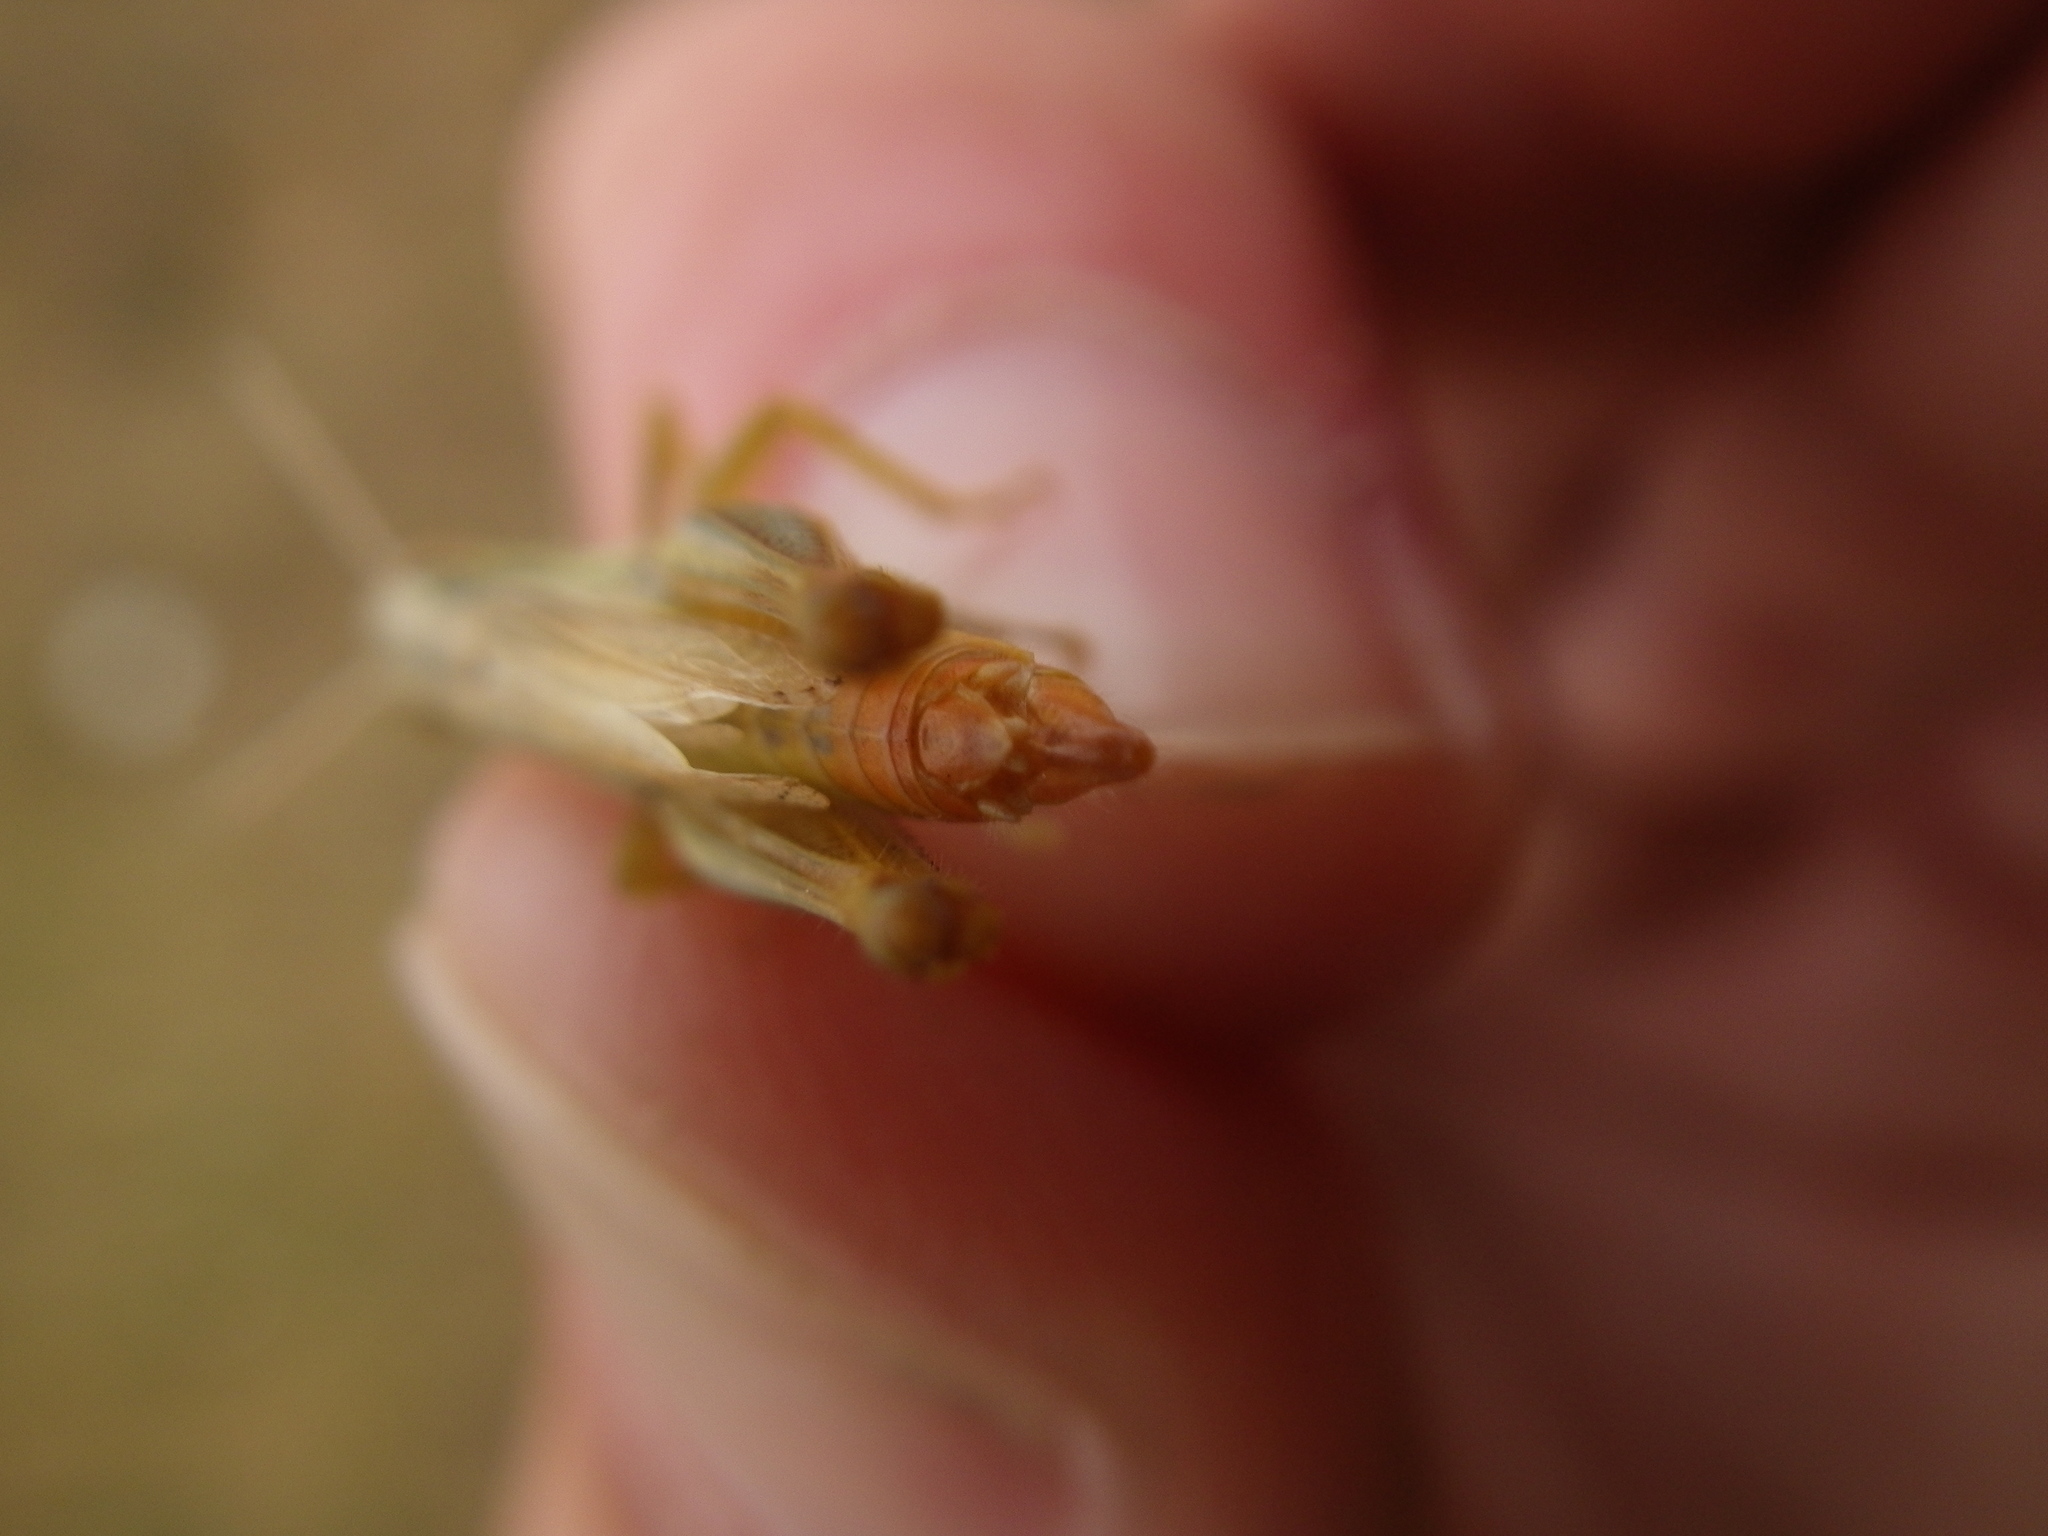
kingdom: Animalia
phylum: Arthropoda
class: Insecta
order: Orthoptera
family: Acrididae
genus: Euchorthippus
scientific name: Euchorthippus declivus
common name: Common straw grasshopper
